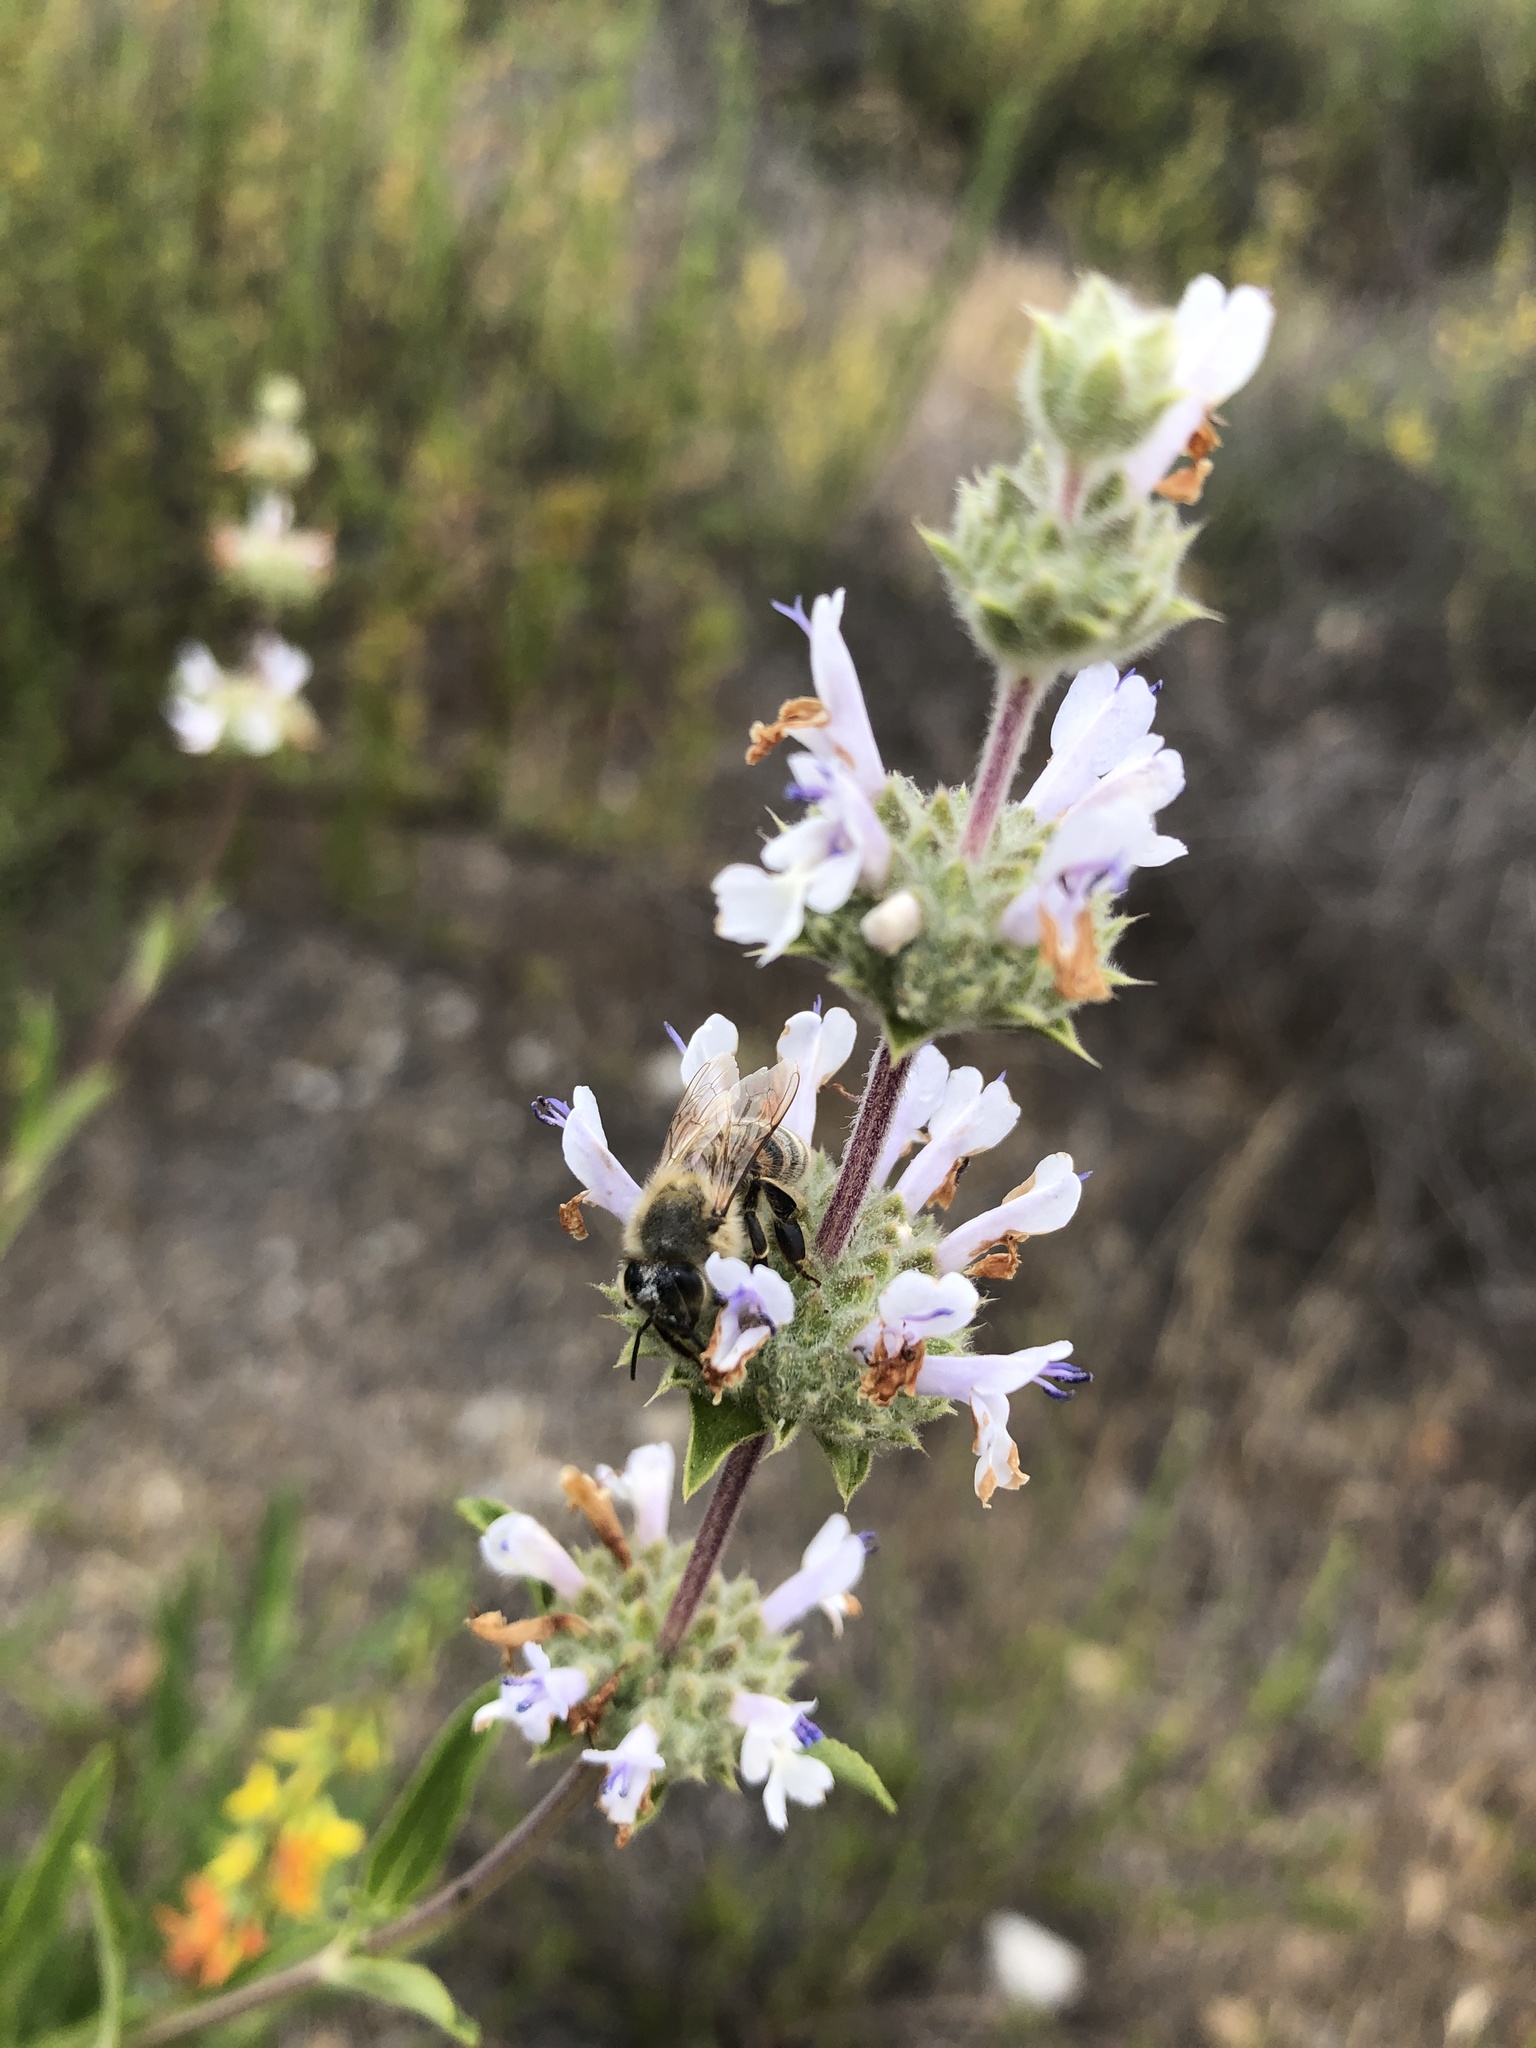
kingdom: Animalia
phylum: Arthropoda
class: Insecta
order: Hymenoptera
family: Apidae
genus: Apis
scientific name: Apis mellifera
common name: Honey bee
